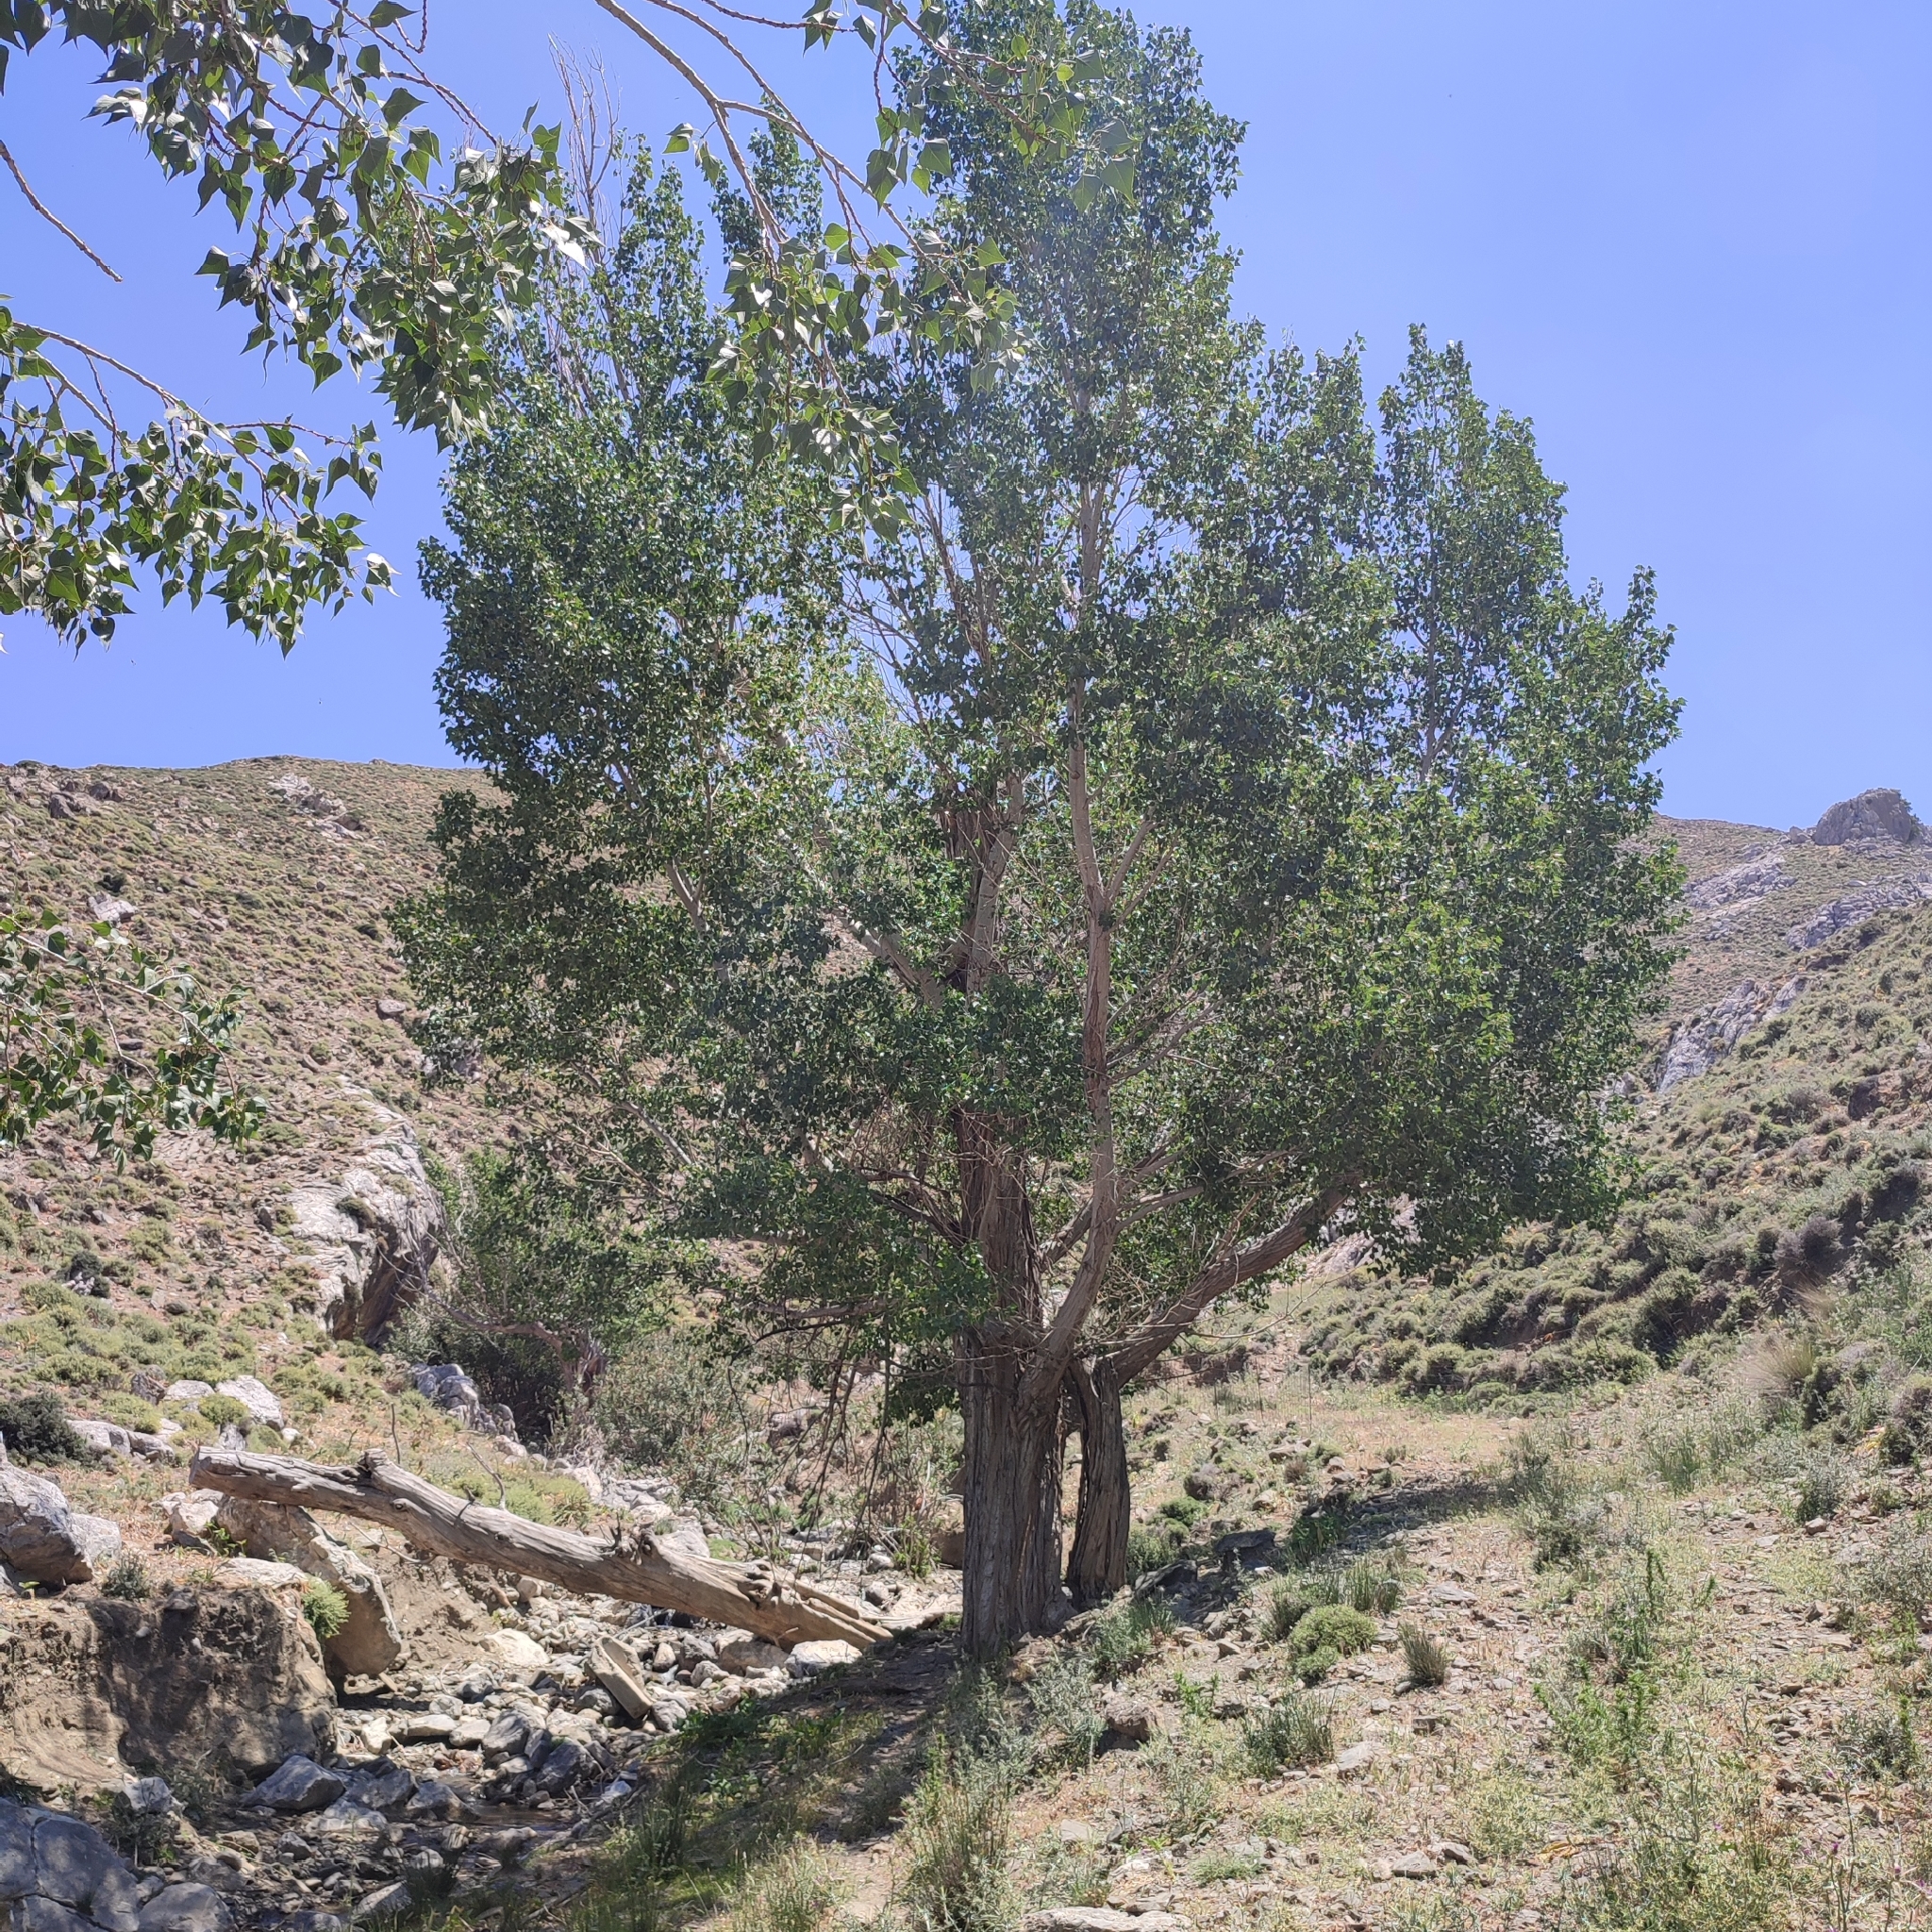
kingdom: Plantae
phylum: Tracheophyta
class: Magnoliopsida
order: Malpighiales
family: Salicaceae
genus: Populus
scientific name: Populus nigra
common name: Black poplar
